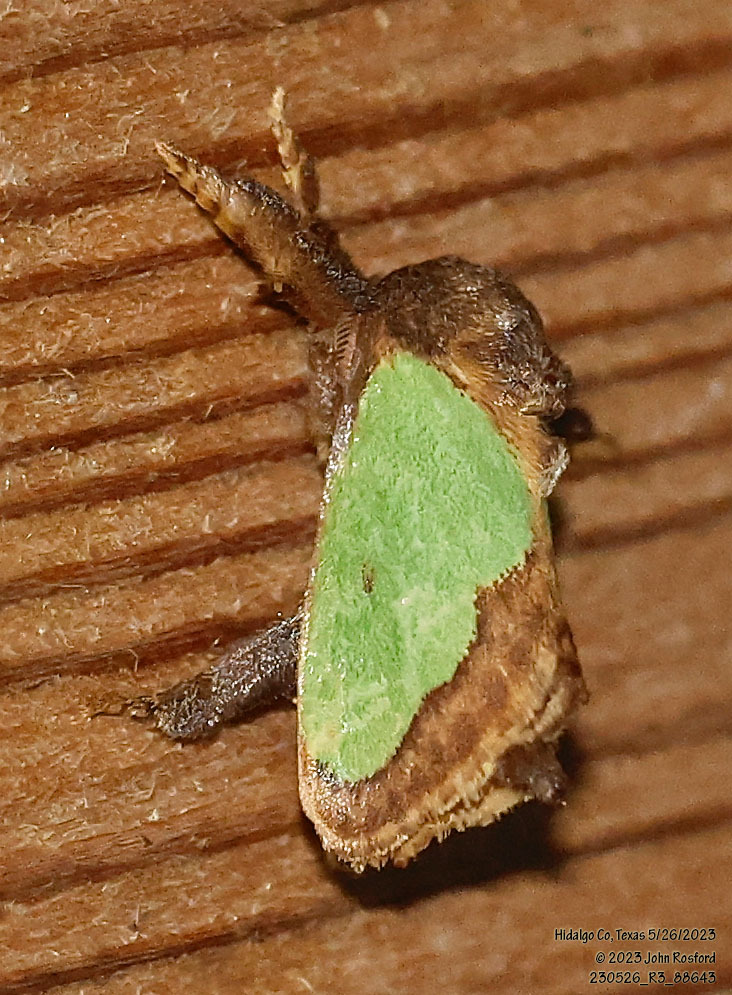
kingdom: Animalia
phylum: Arthropoda
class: Insecta
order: Lepidoptera
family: Limacodidae
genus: Euclea
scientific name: Euclea incisa
